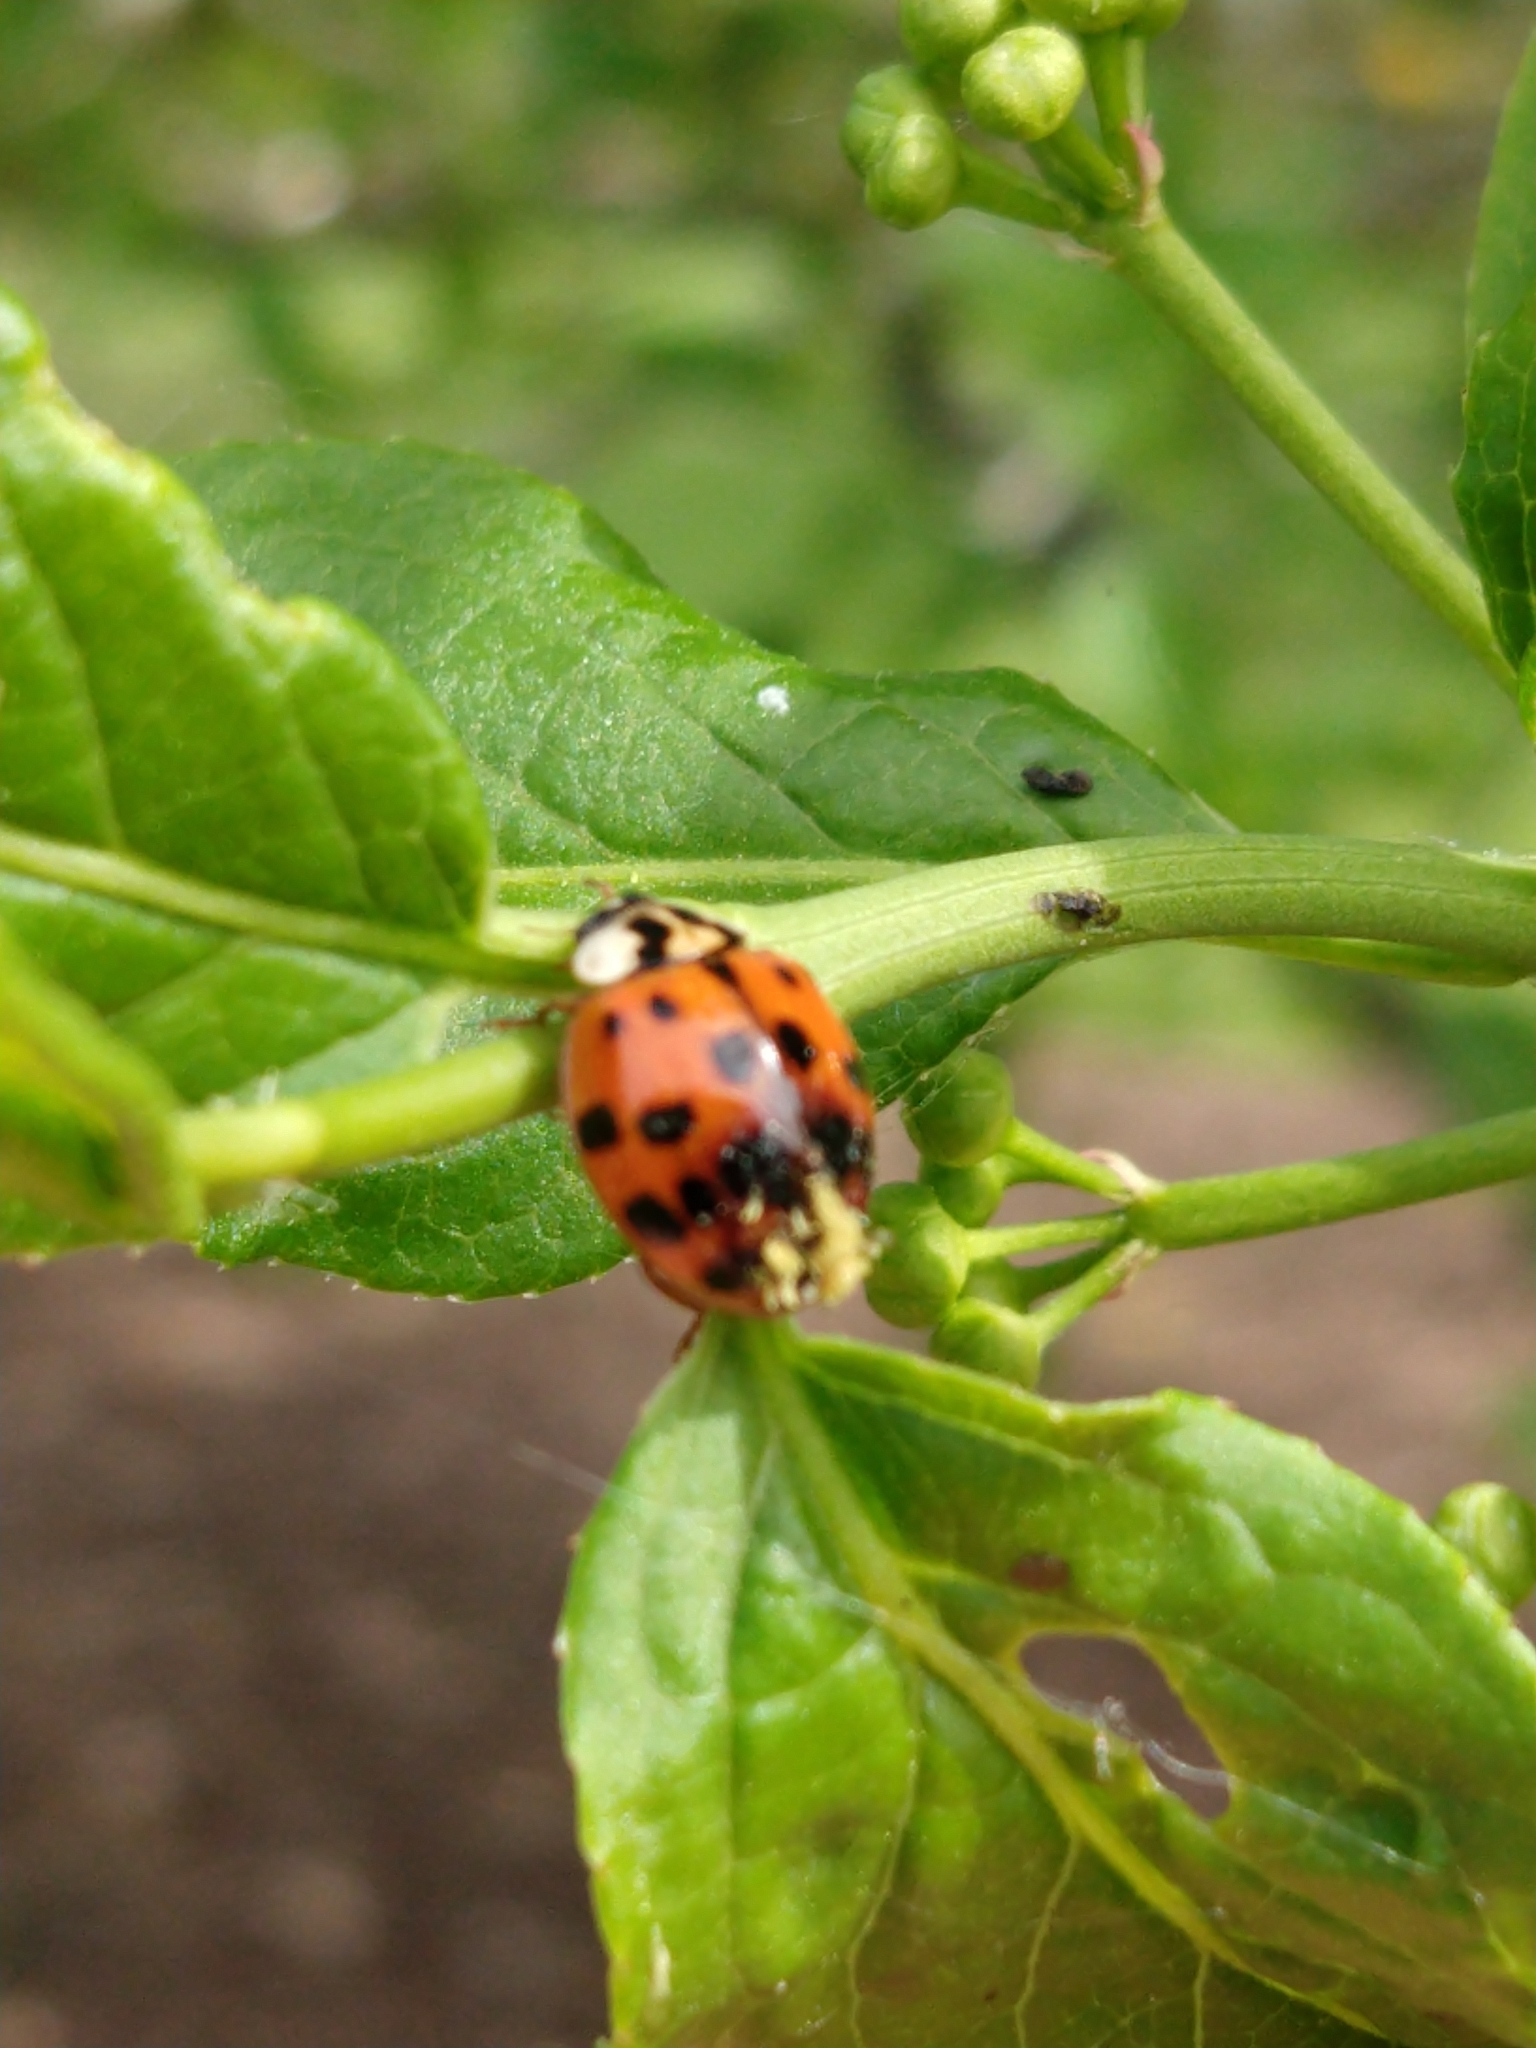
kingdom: Fungi
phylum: Ascomycota
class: Laboulbeniomycetes
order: Laboulbeniales
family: Laboulbeniaceae
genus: Hesperomyces
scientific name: Hesperomyces harmoniae
